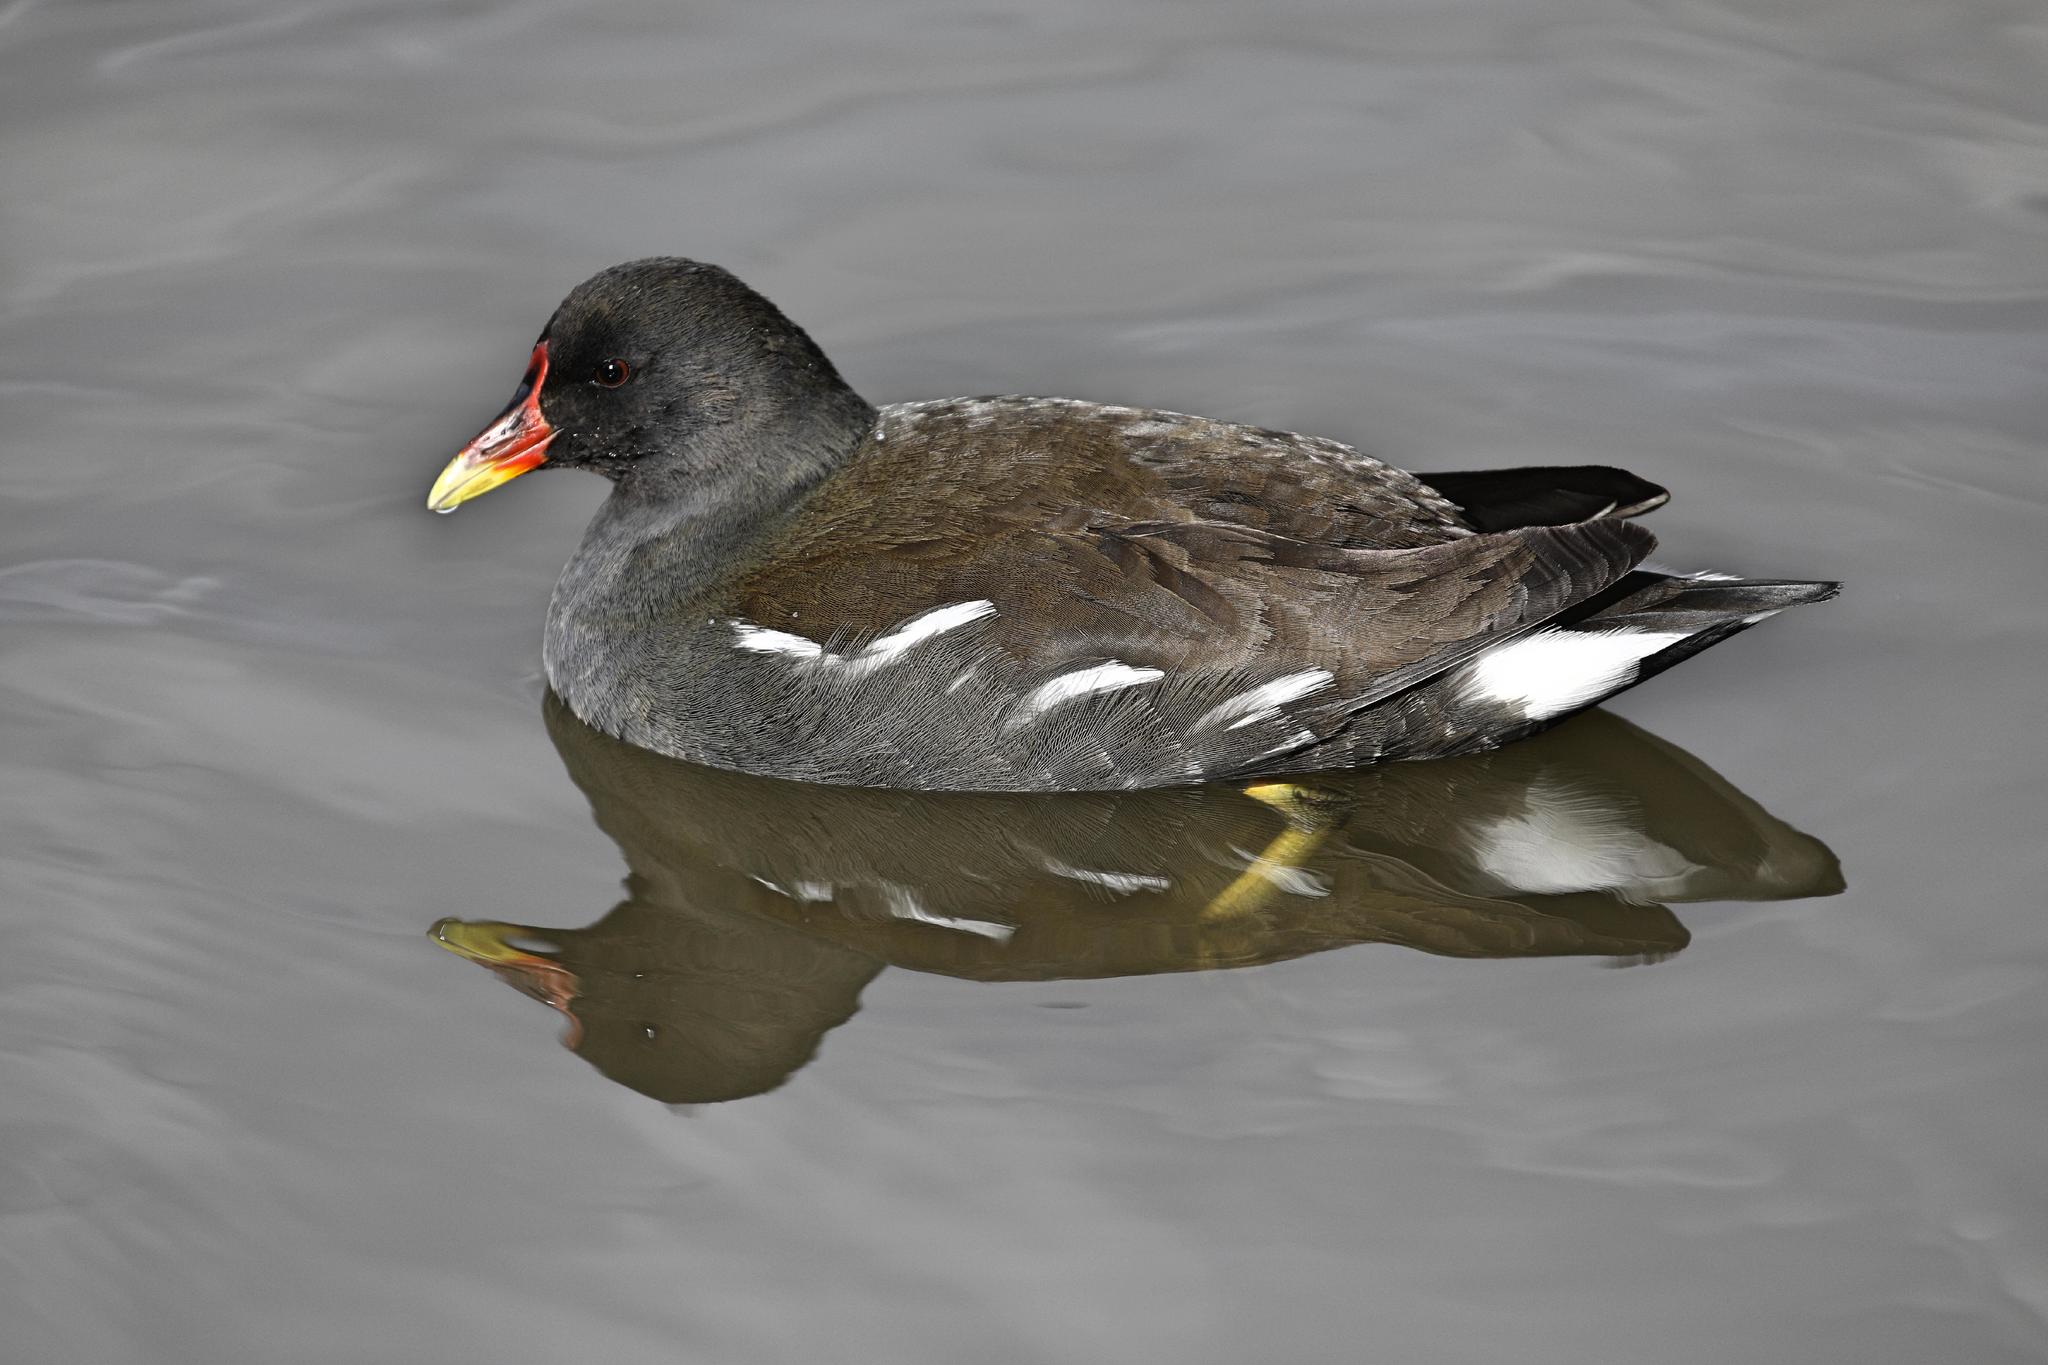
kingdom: Animalia
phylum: Chordata
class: Aves
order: Gruiformes
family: Rallidae
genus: Gallinula
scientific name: Gallinula chloropus
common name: Common moorhen
